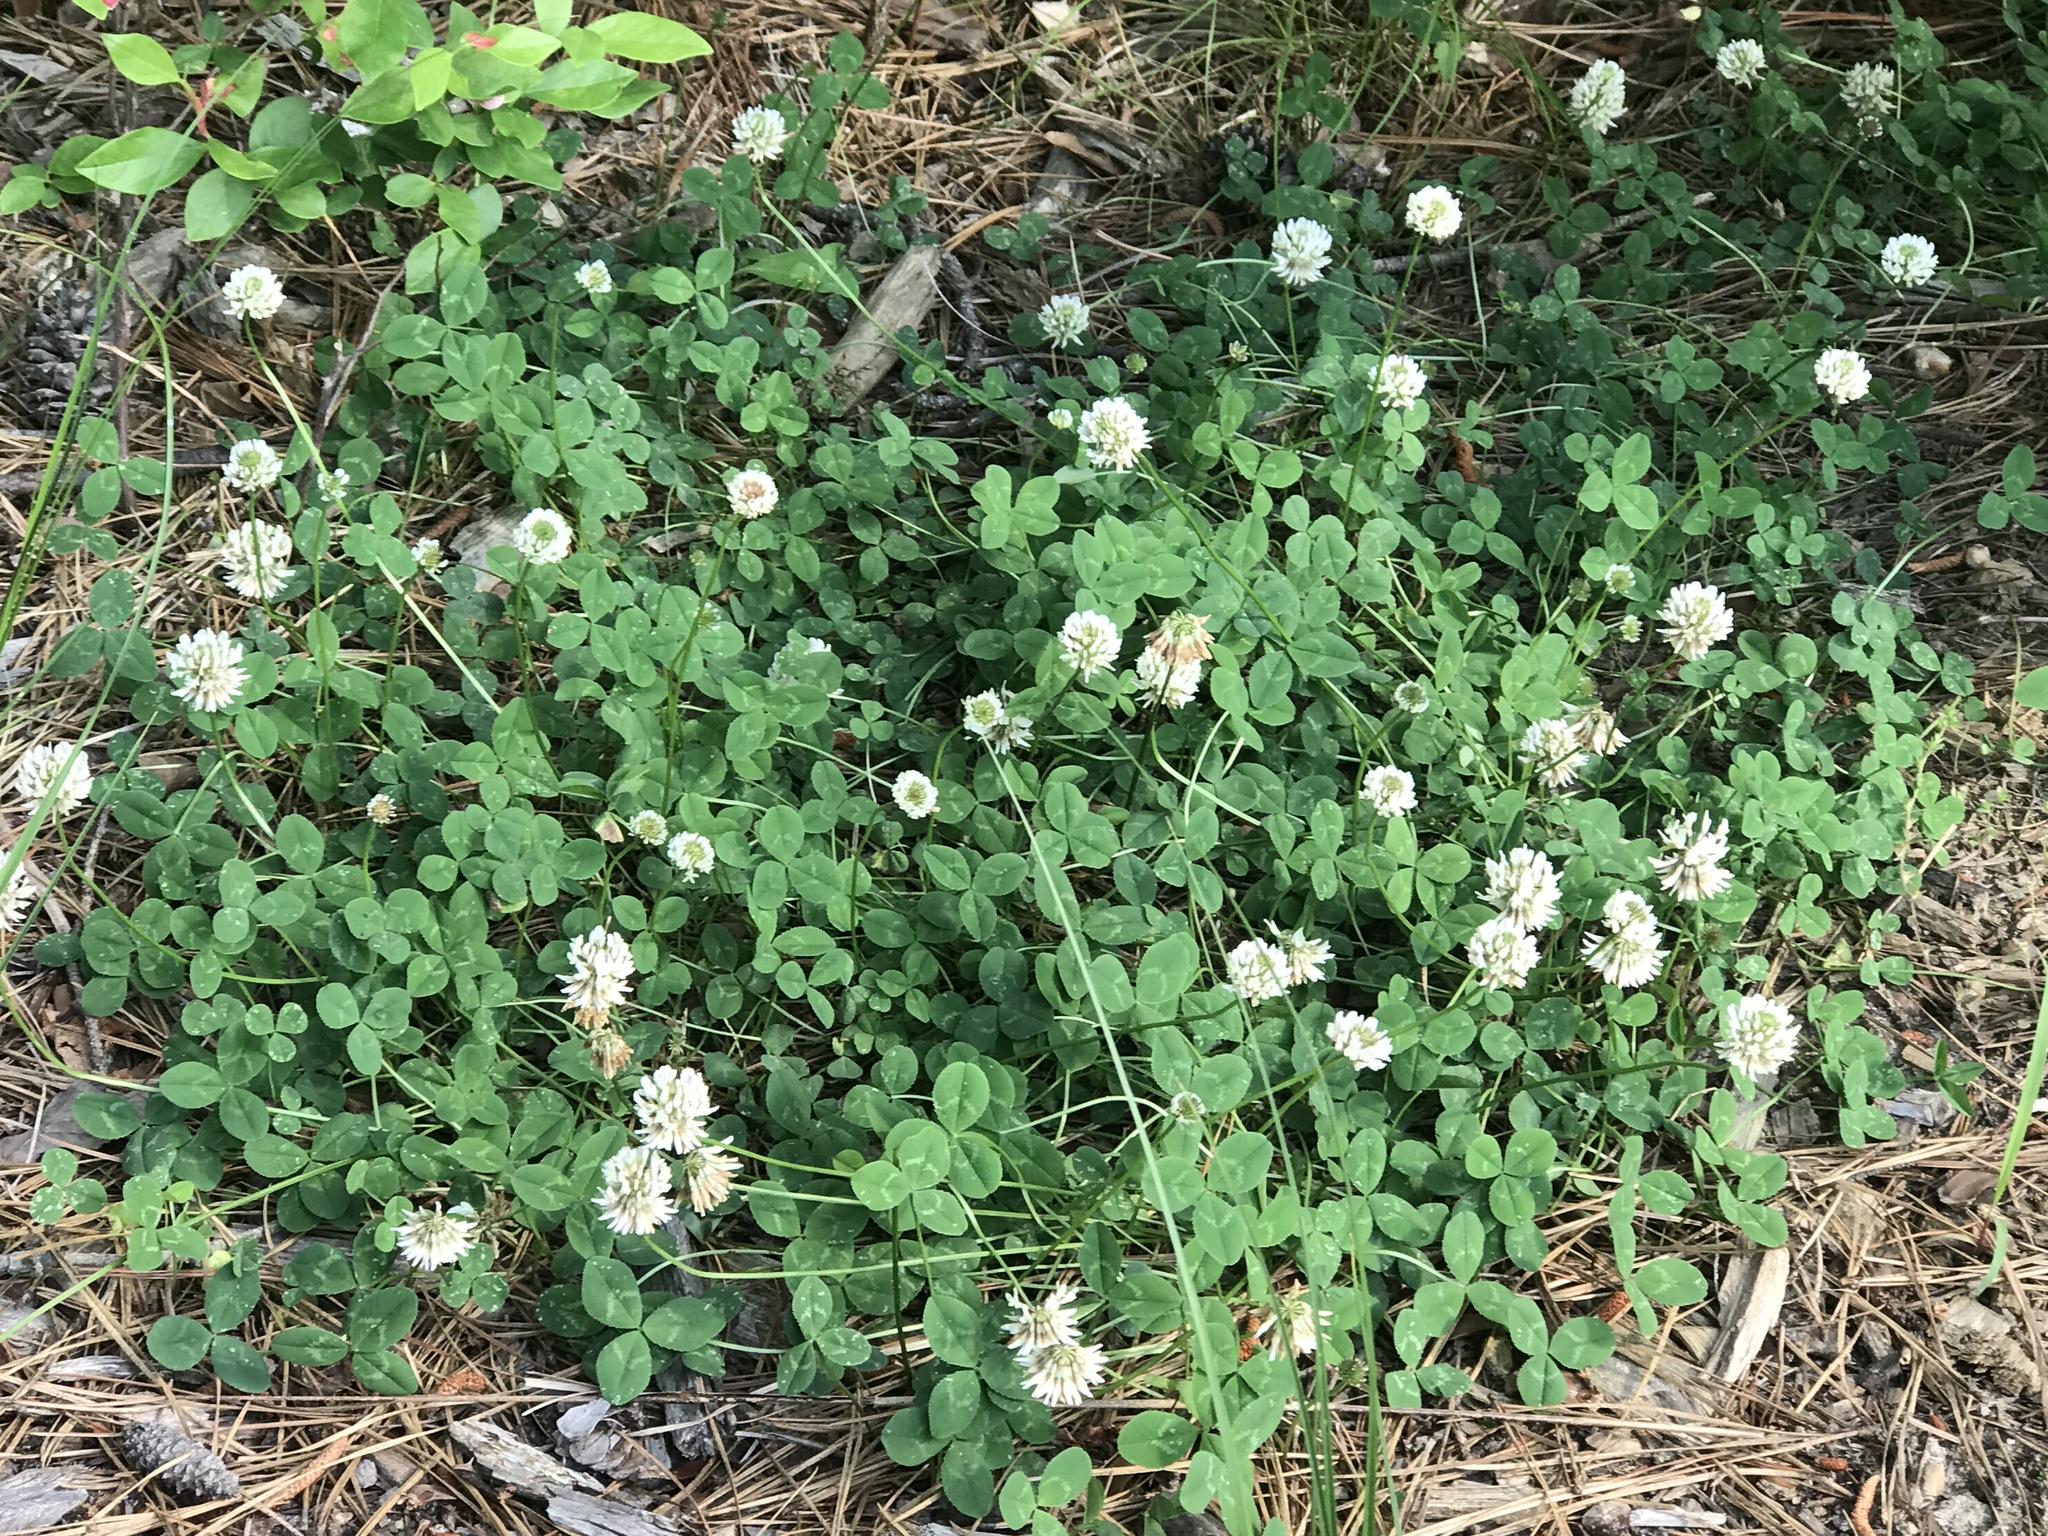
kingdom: Plantae
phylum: Tracheophyta
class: Magnoliopsida
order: Fabales
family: Fabaceae
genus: Trifolium
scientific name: Trifolium repens
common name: White clover
